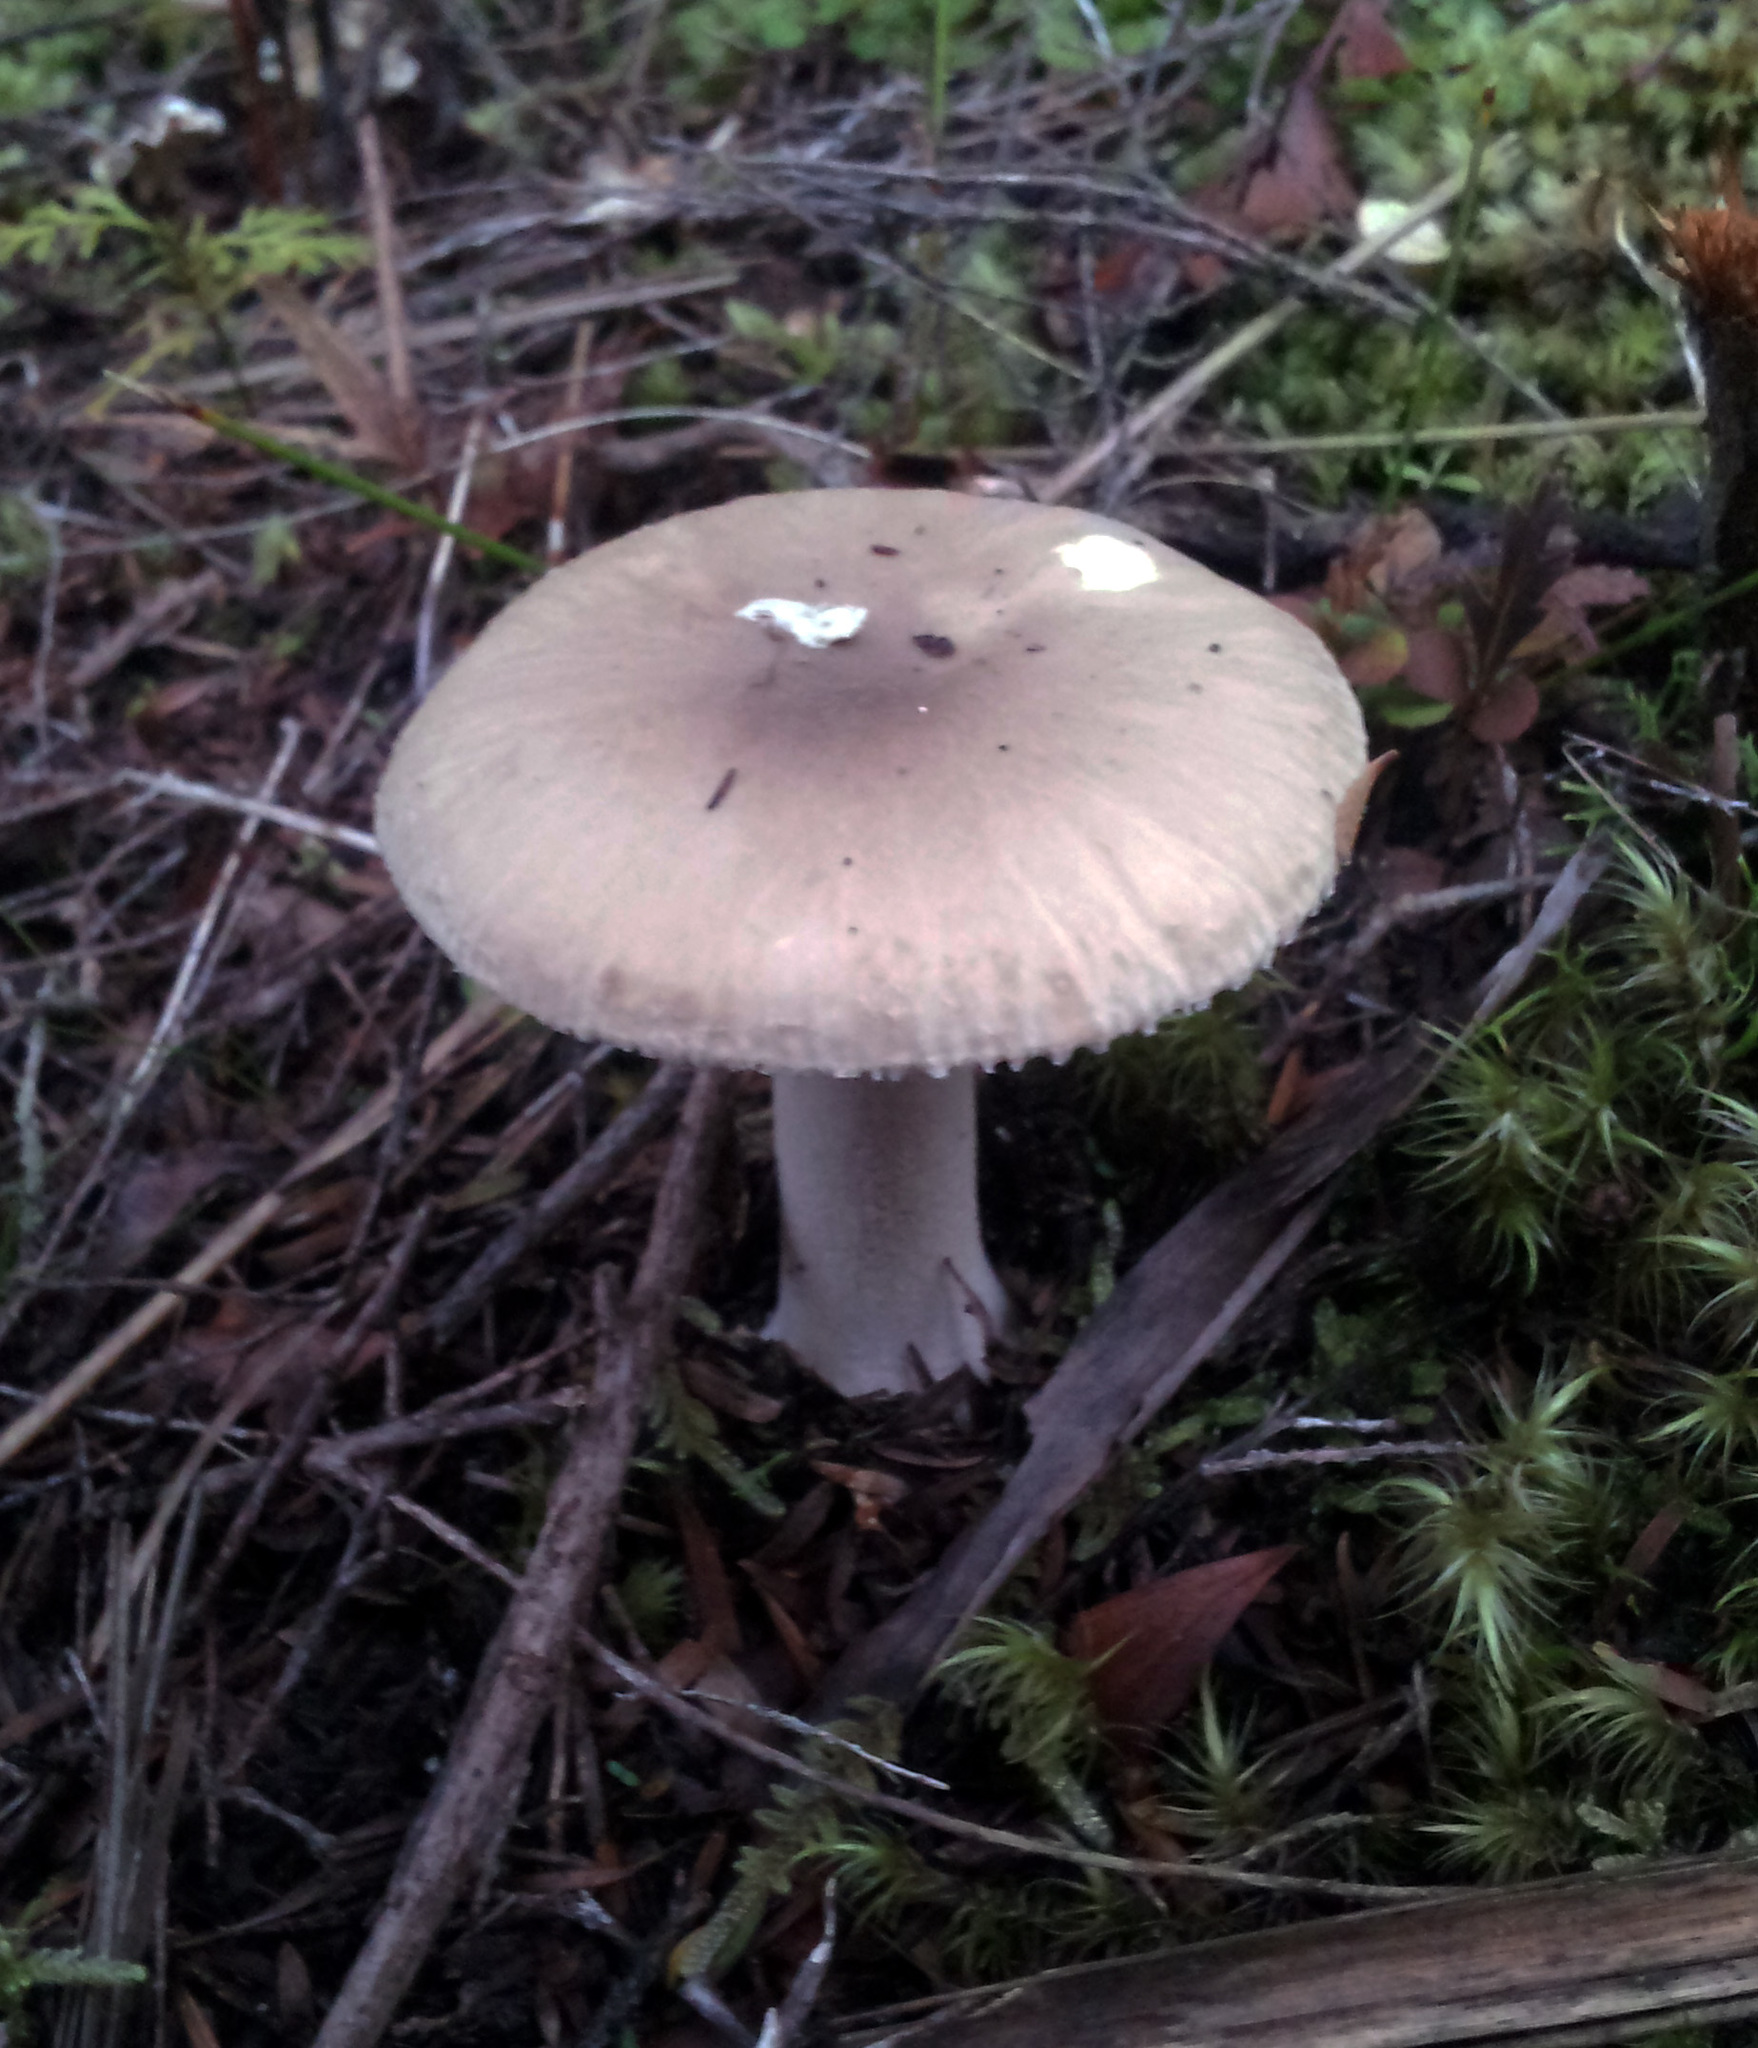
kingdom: Fungi
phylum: Basidiomycota
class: Agaricomycetes
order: Agaricales
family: Amanitaceae
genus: Amanita
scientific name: Amanita nehuta
